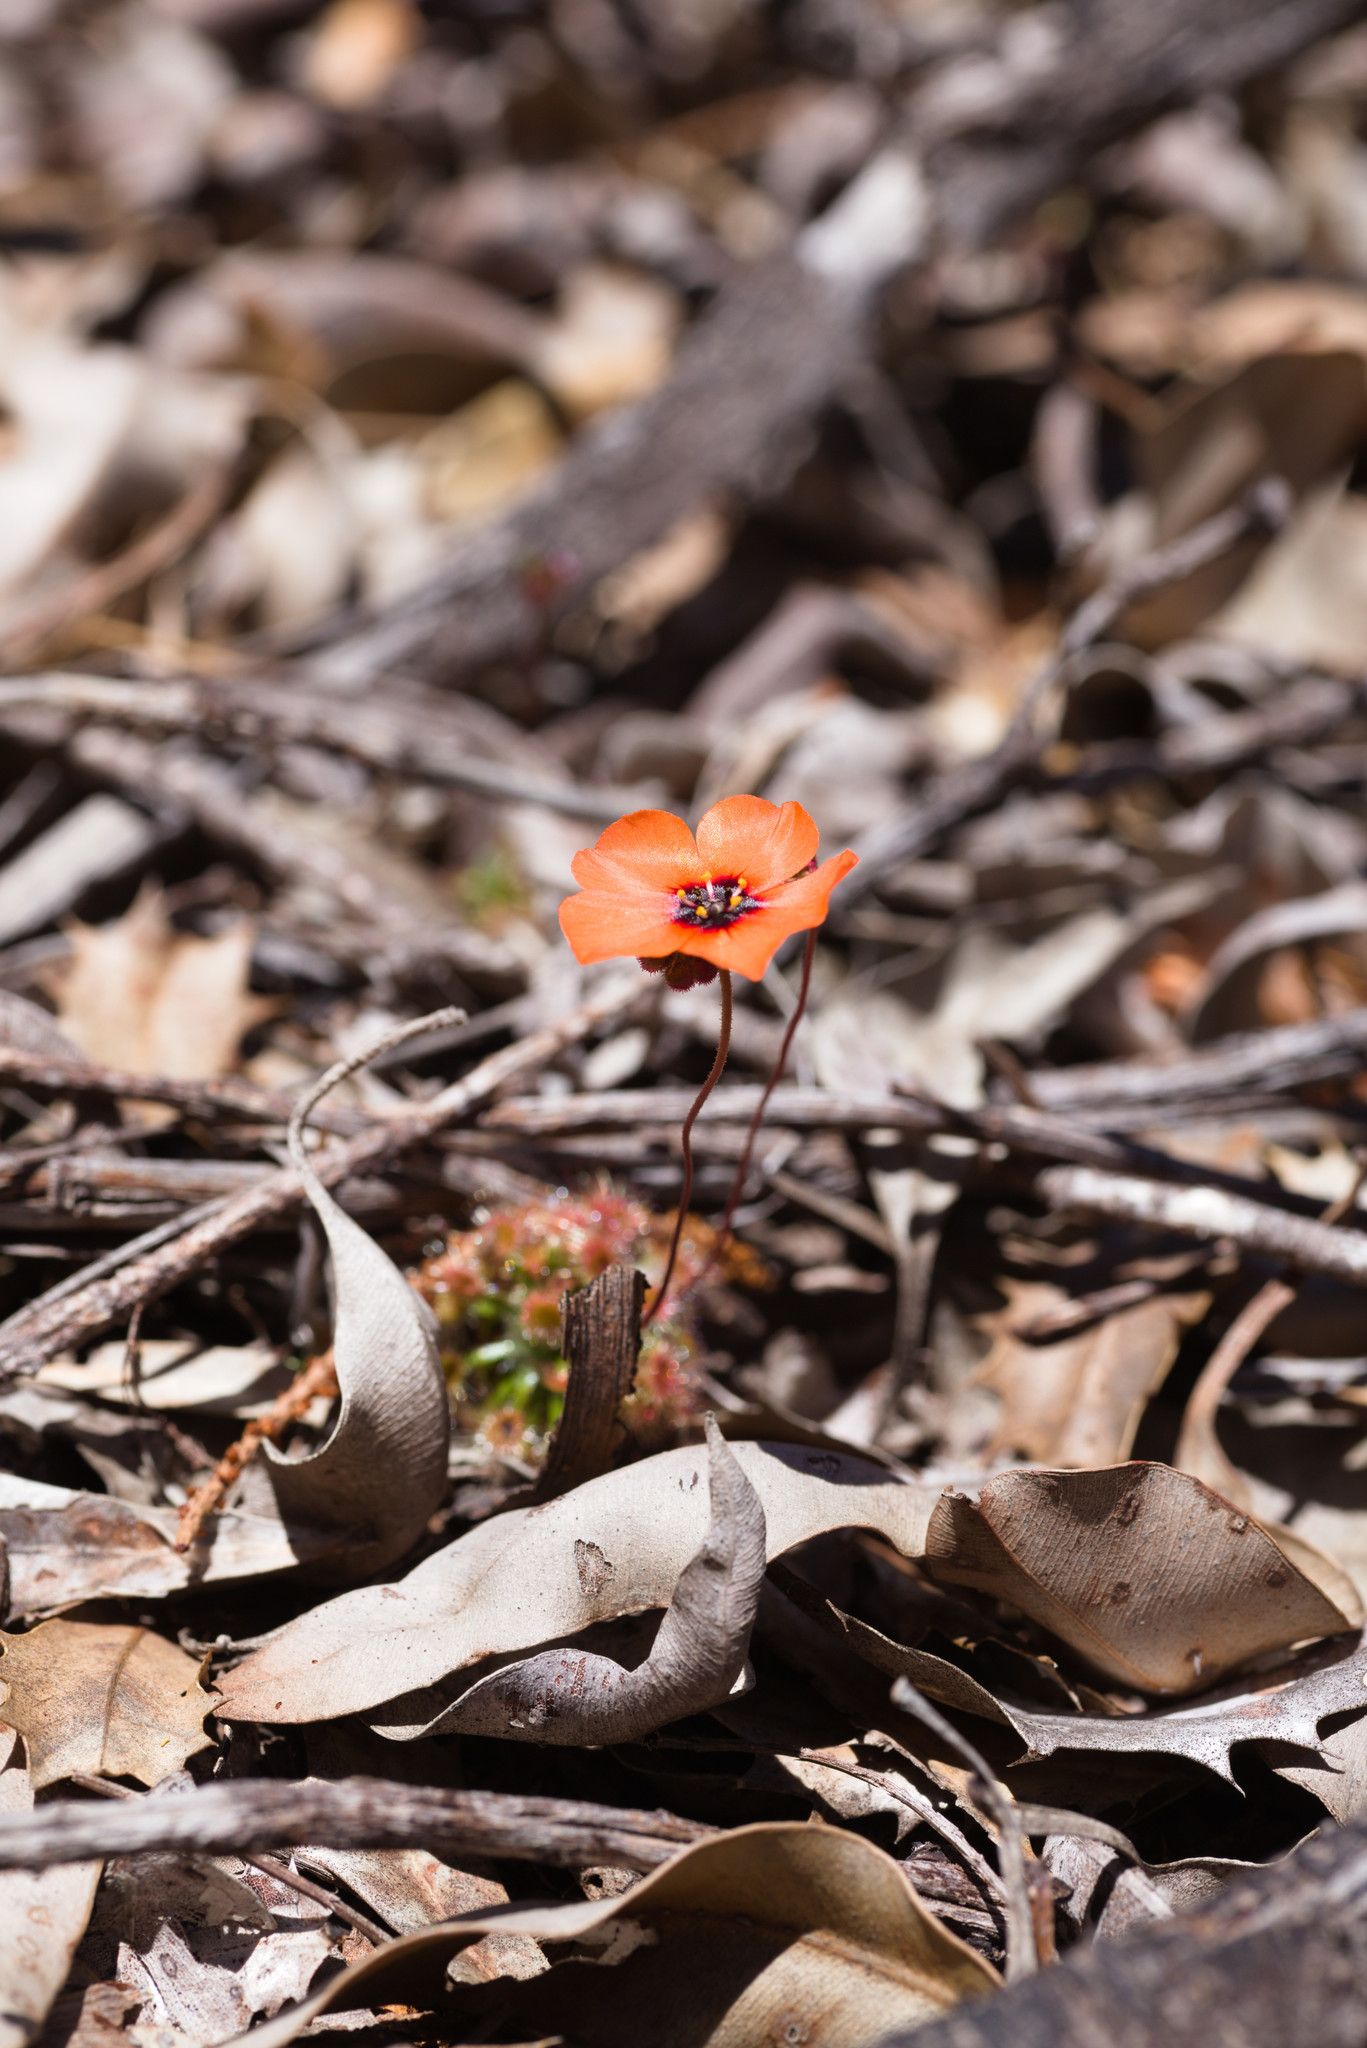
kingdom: Plantae
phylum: Tracheophyta
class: Magnoliopsida
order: Caryophyllales
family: Droseraceae
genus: Drosera
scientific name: Drosera hyperostigma
